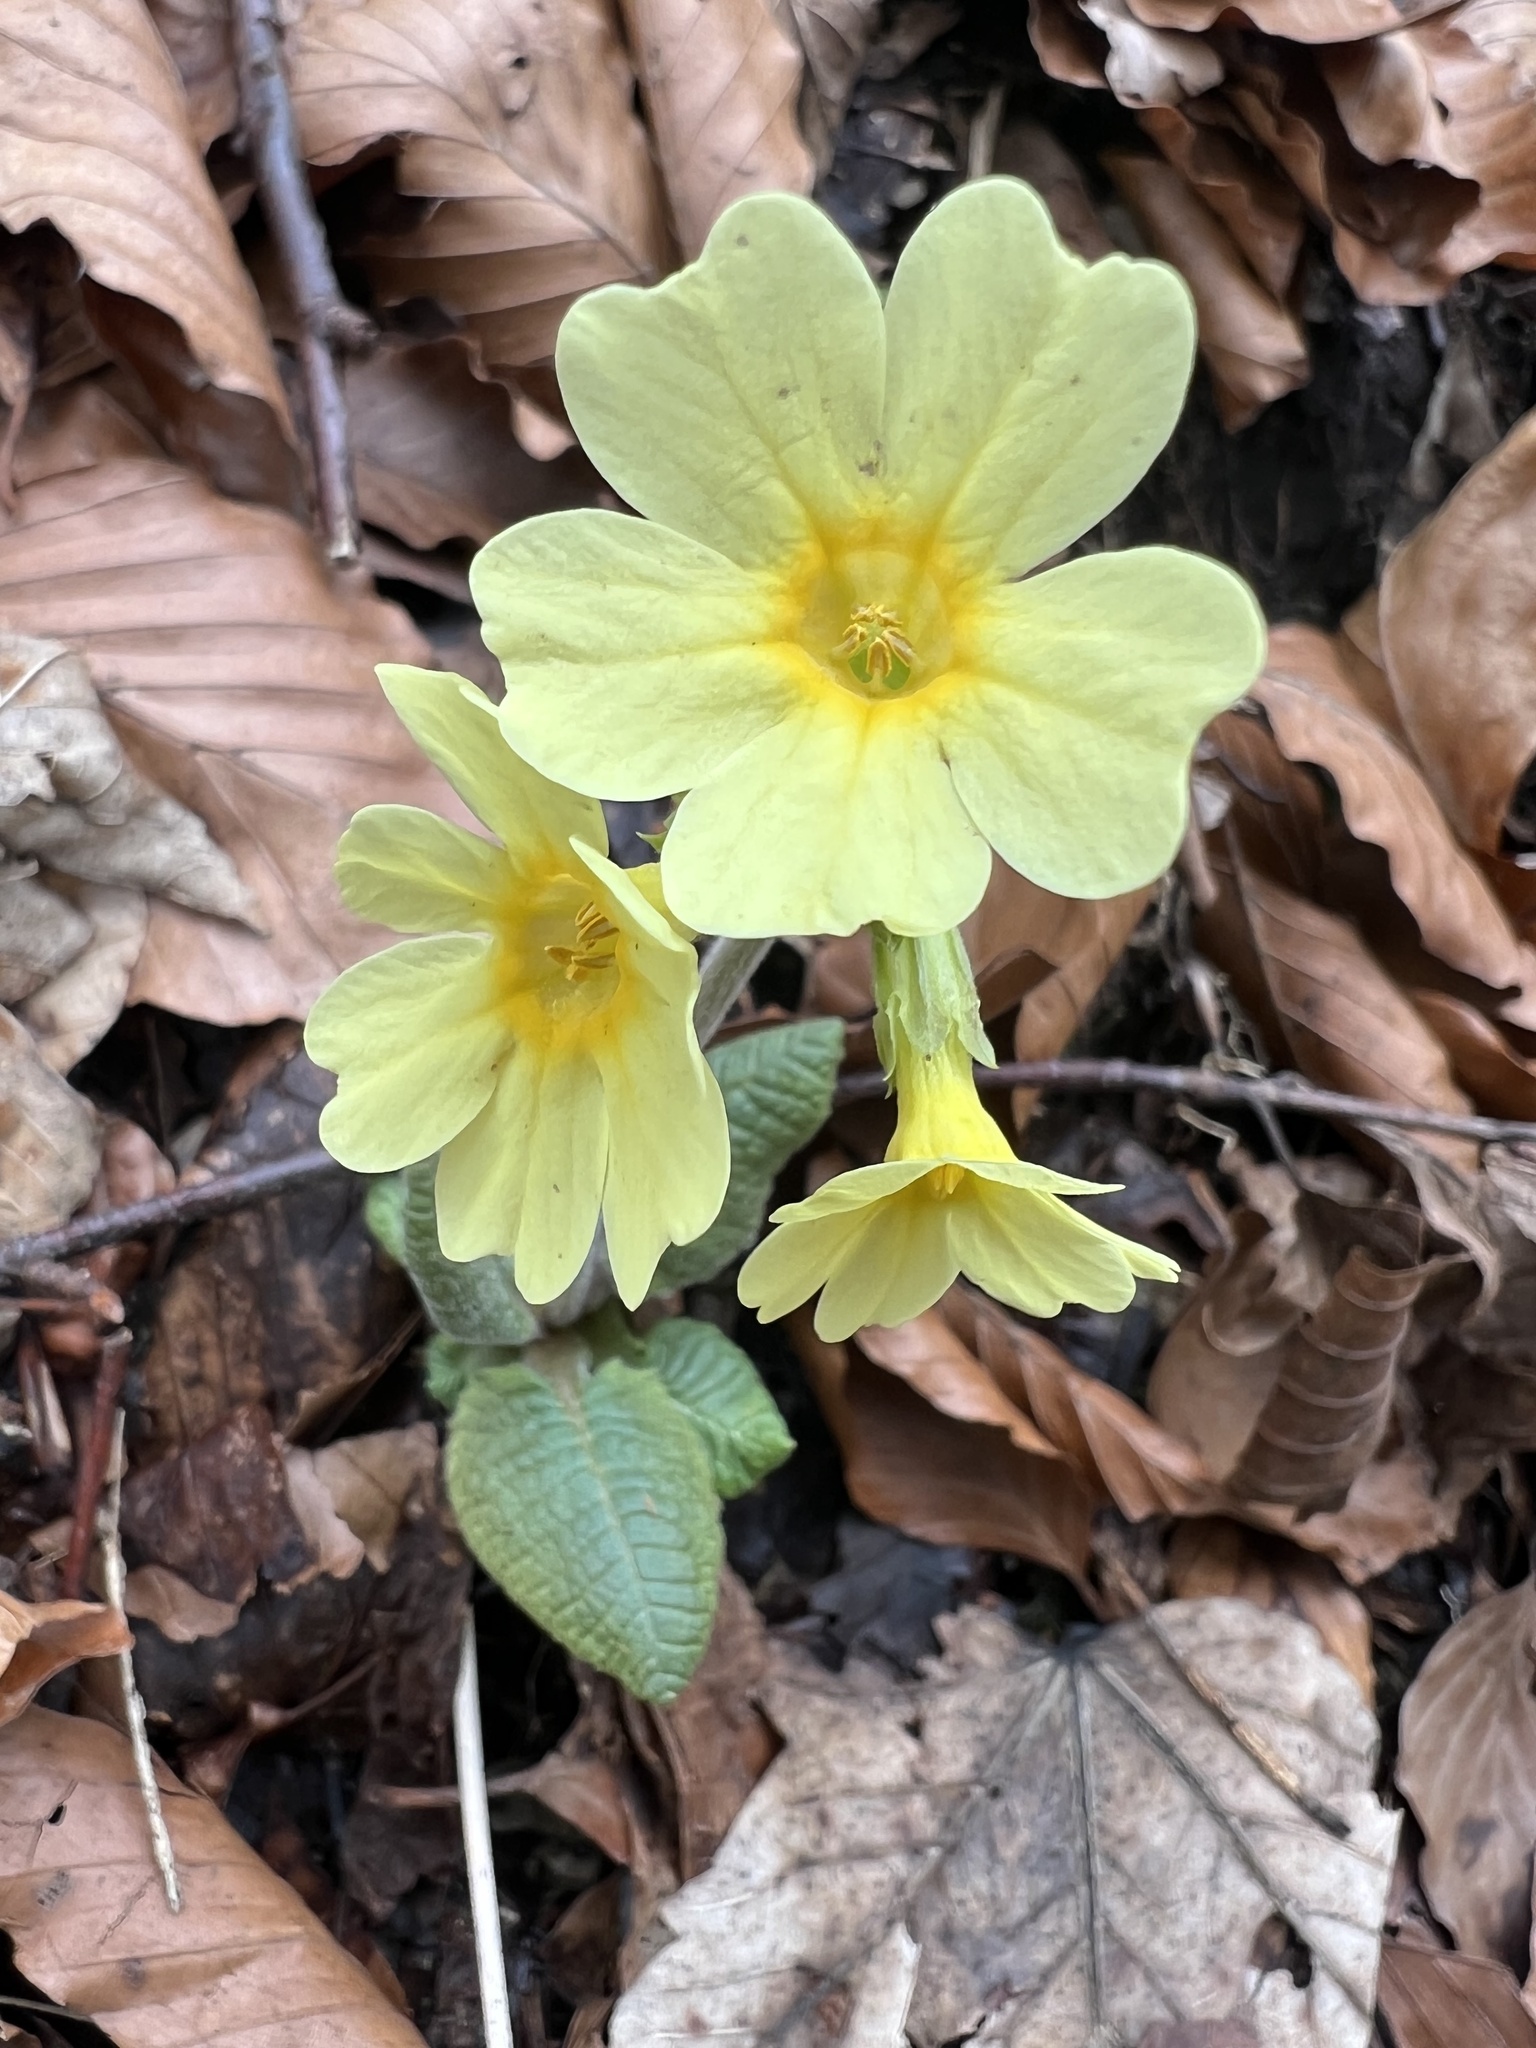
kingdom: Plantae
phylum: Tracheophyta
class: Magnoliopsida
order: Ericales
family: Primulaceae
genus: Primula
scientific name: Primula elatior
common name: Oxlip
